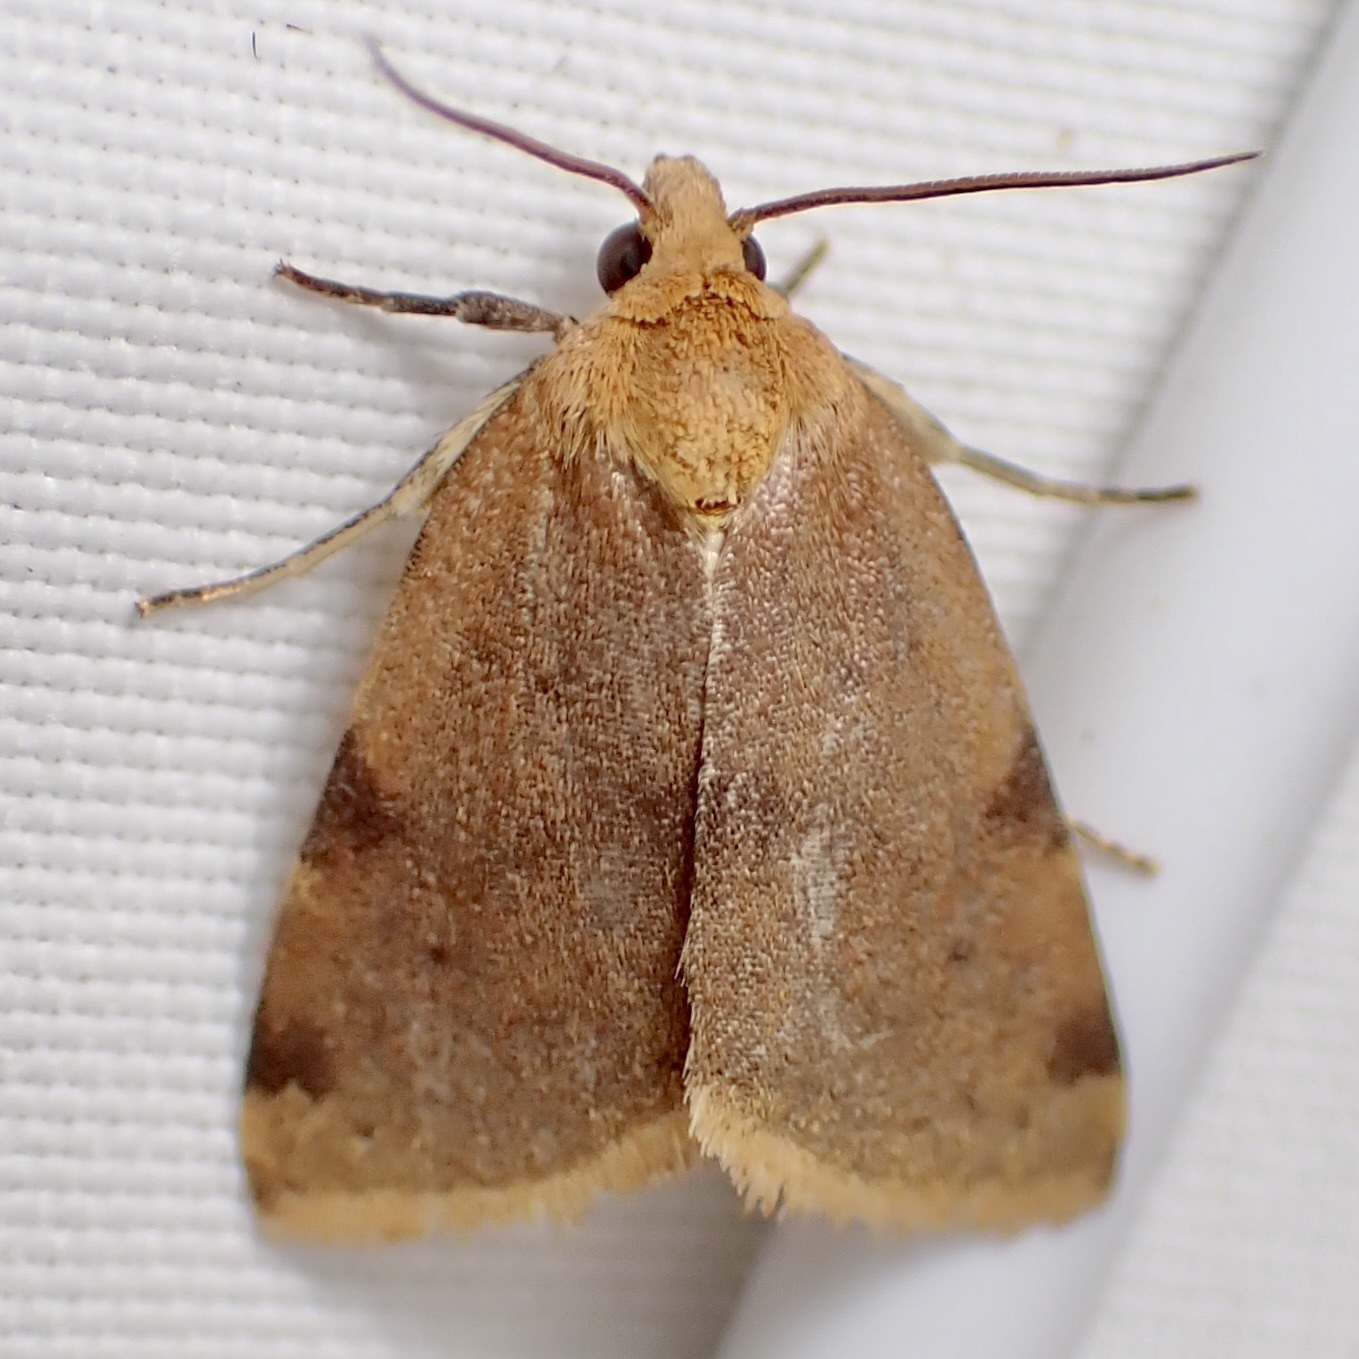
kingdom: Animalia
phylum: Arthropoda
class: Insecta
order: Lepidoptera
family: Noctuidae
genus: Azenia
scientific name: Azenia procida
